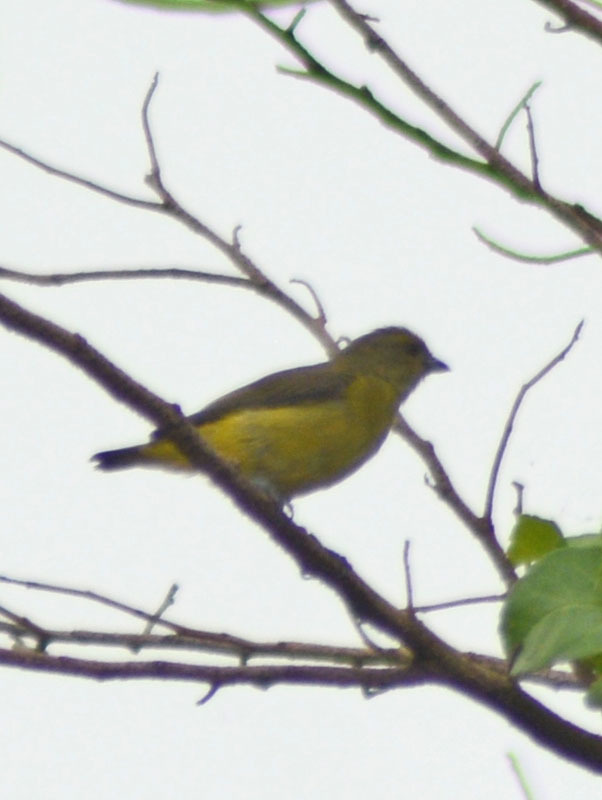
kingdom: Animalia
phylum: Chordata
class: Aves
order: Passeriformes
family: Fringillidae
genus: Euphonia
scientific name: Euphonia affinis
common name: Scrub euphonia
